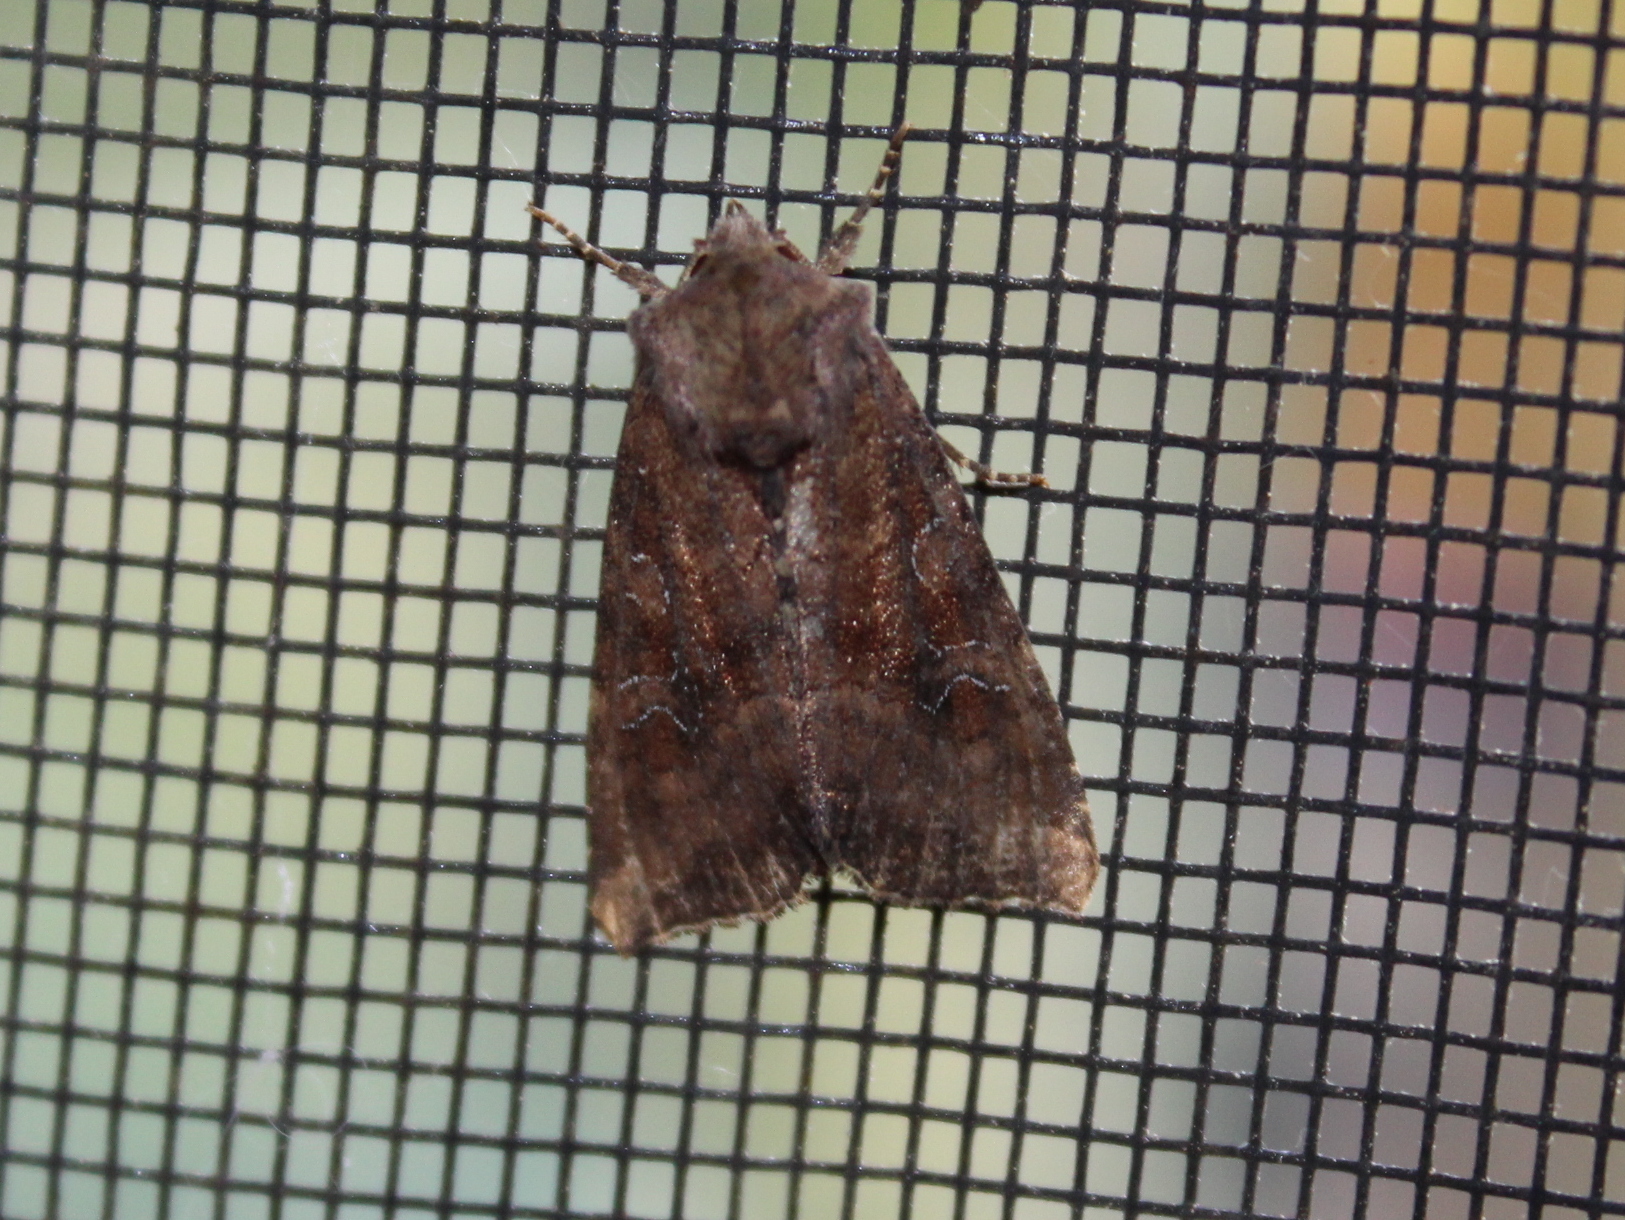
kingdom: Animalia
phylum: Arthropoda
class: Insecta
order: Lepidoptera
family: Noctuidae
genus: Loscopia
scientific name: Loscopia velata
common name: Veiled ear moth
